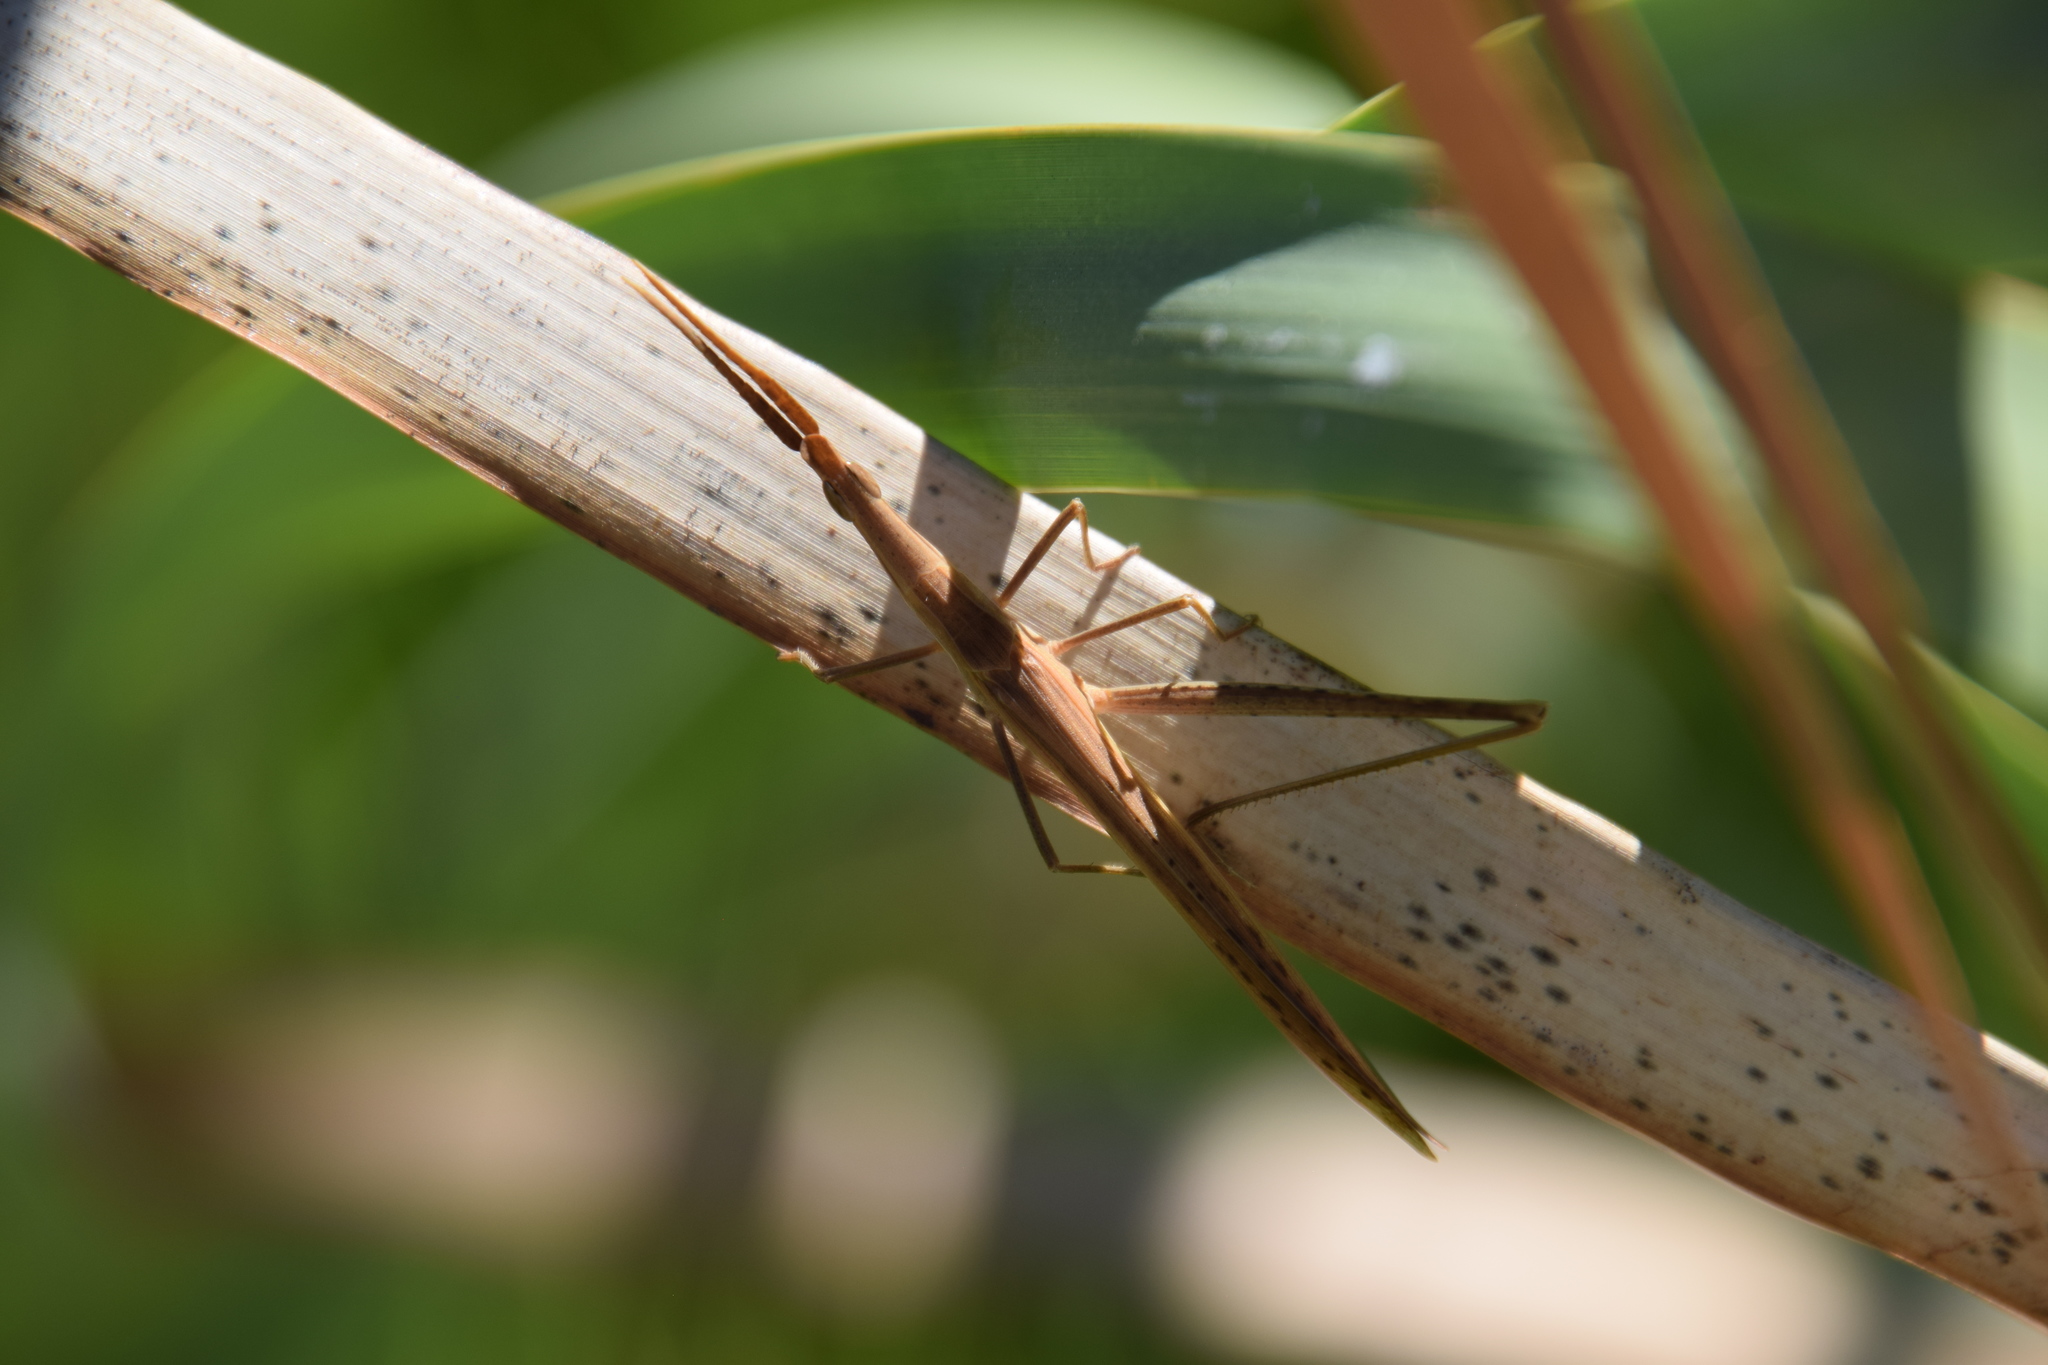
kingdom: Animalia
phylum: Arthropoda
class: Insecta
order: Orthoptera
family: Acrididae
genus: Acrida
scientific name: Acrida conica
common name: Giant green slantface
